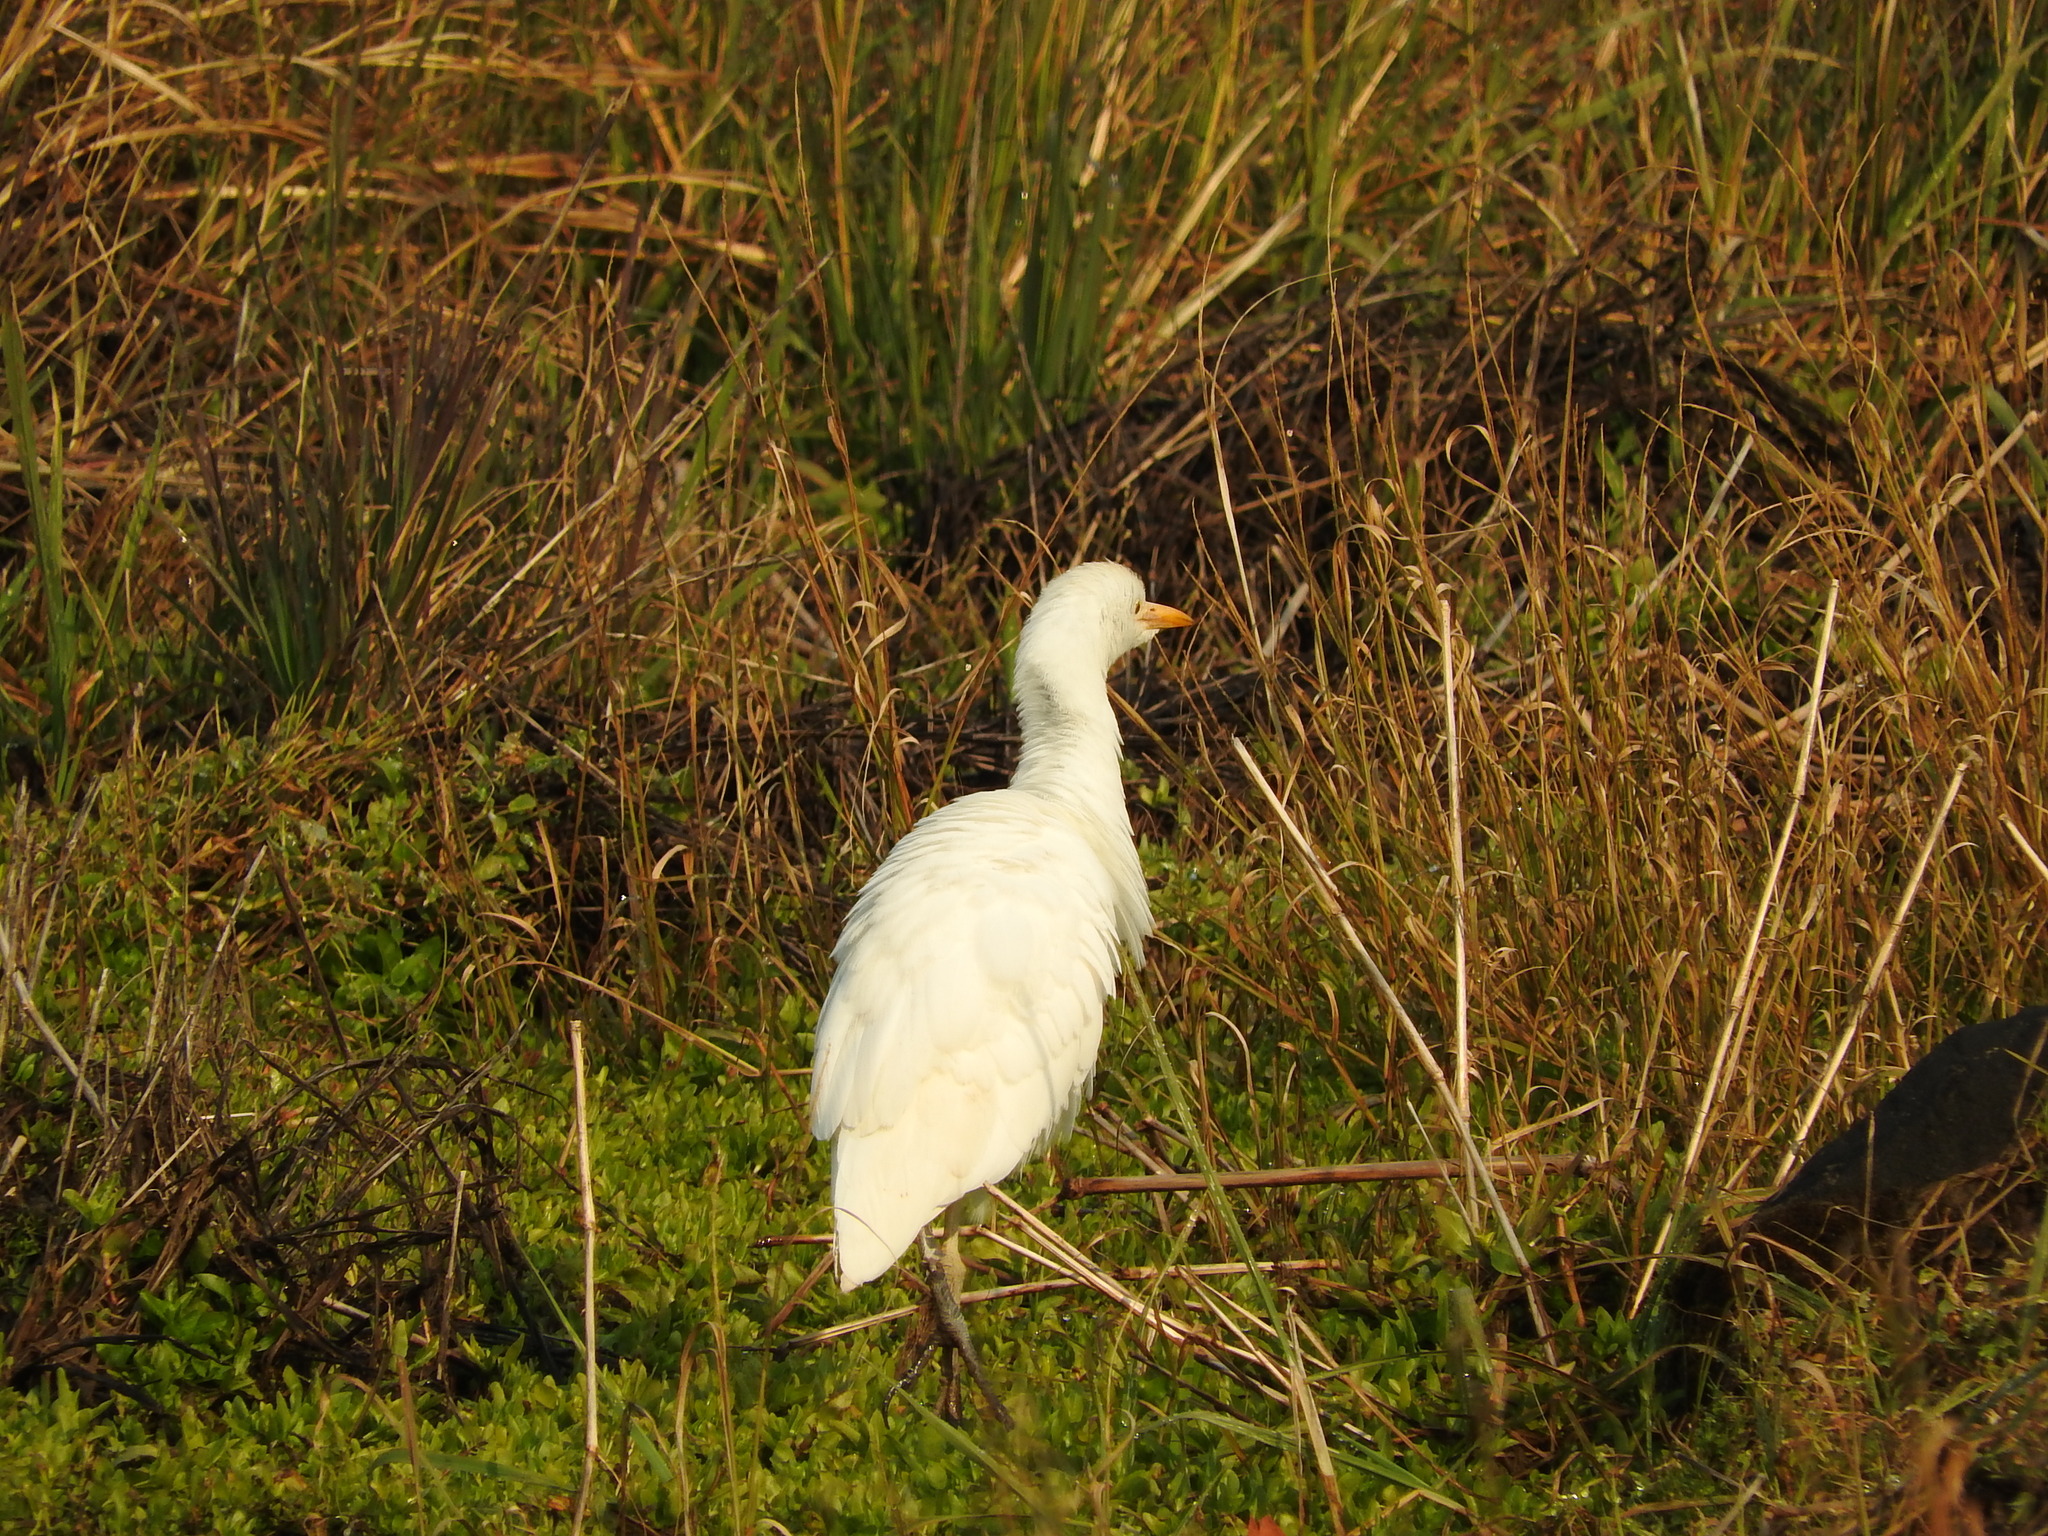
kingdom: Animalia
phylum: Chordata
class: Aves
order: Pelecaniformes
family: Ardeidae
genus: Bubulcus
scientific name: Bubulcus ibis
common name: Cattle egret
